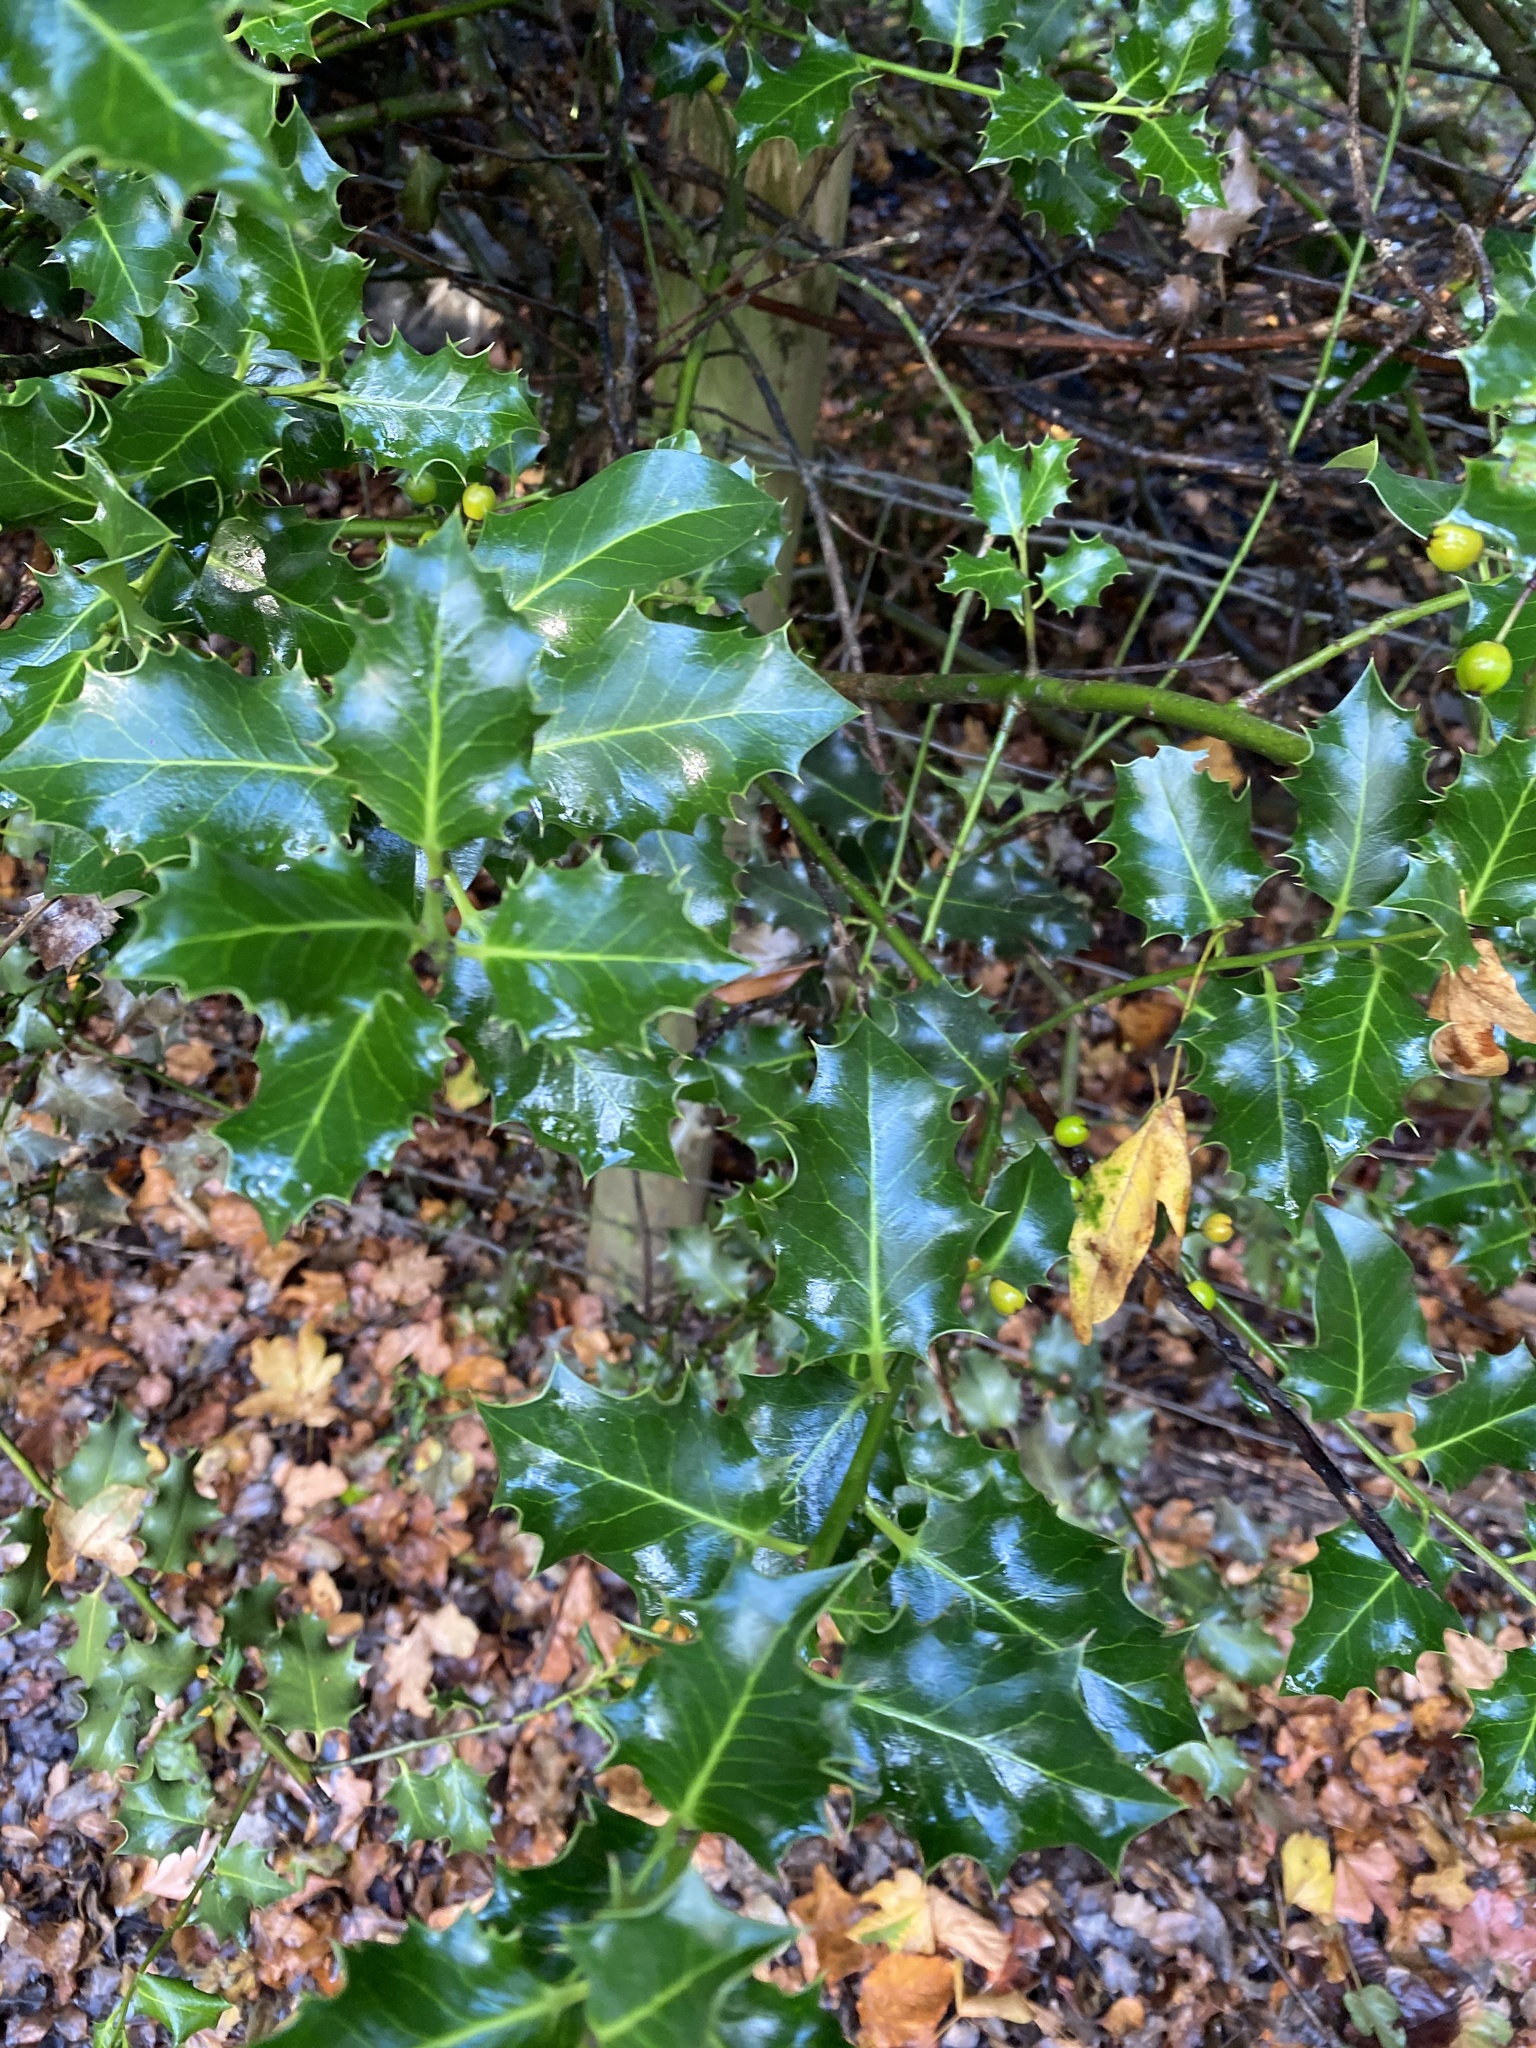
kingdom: Plantae
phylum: Tracheophyta
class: Magnoliopsida
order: Aquifoliales
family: Aquifoliaceae
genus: Ilex
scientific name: Ilex aquifolium
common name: English holly
